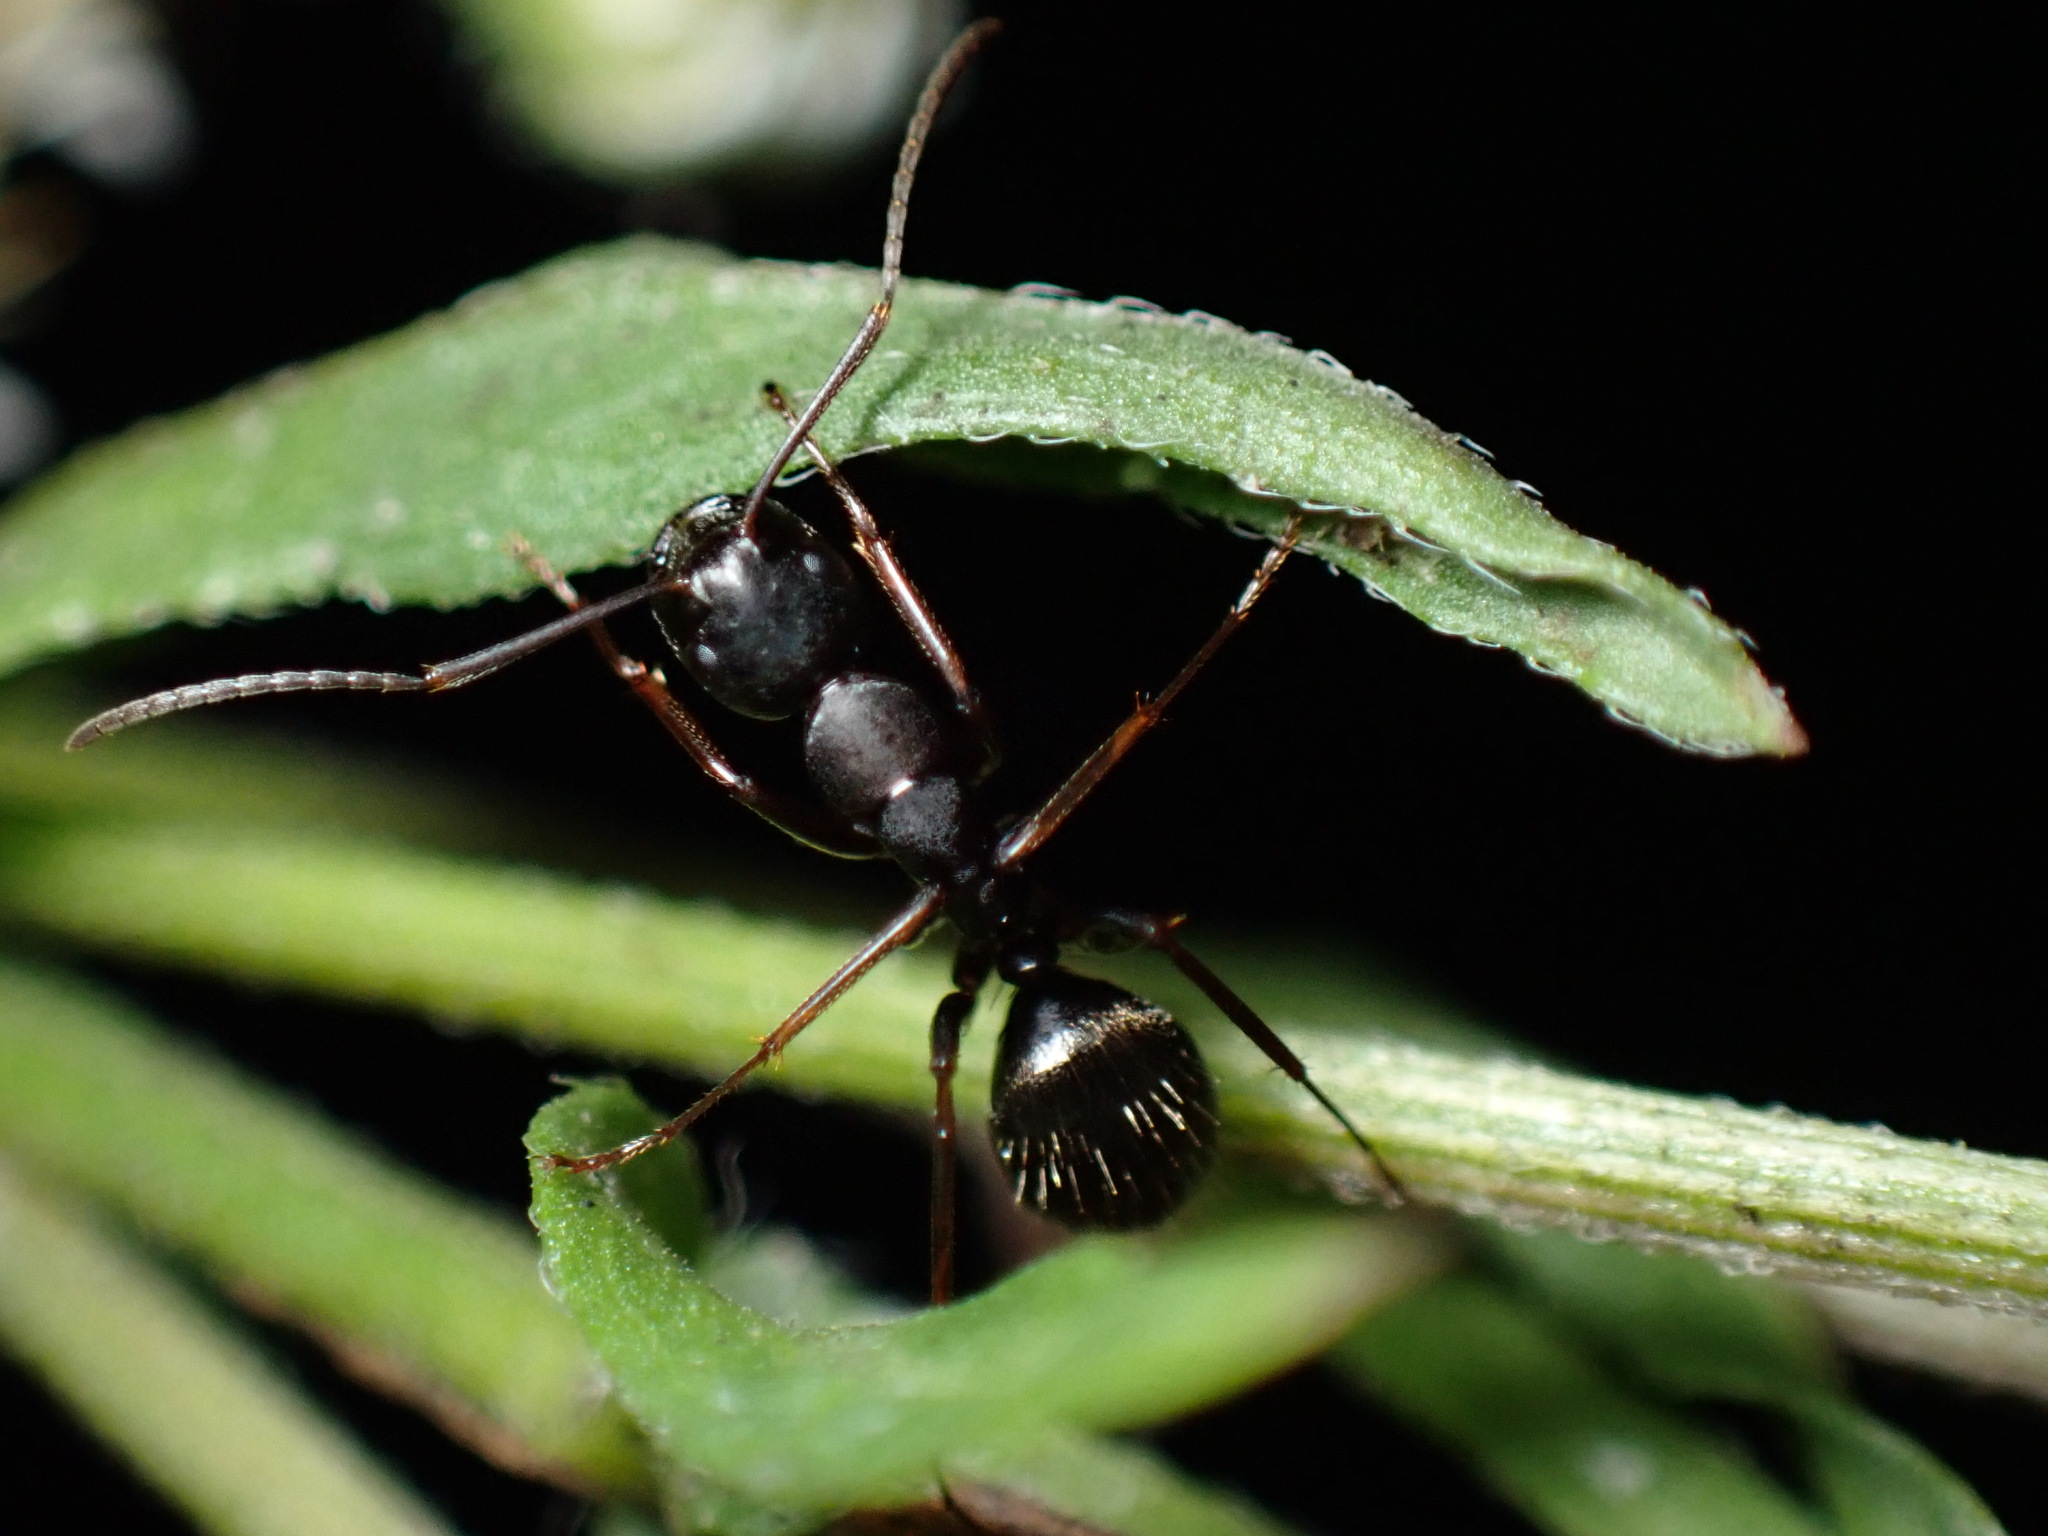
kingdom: Animalia
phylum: Arthropoda
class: Insecta
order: Hymenoptera
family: Formicidae
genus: Camponotus
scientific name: Camponotus pennsylvanicus
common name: Black carpenter ant
